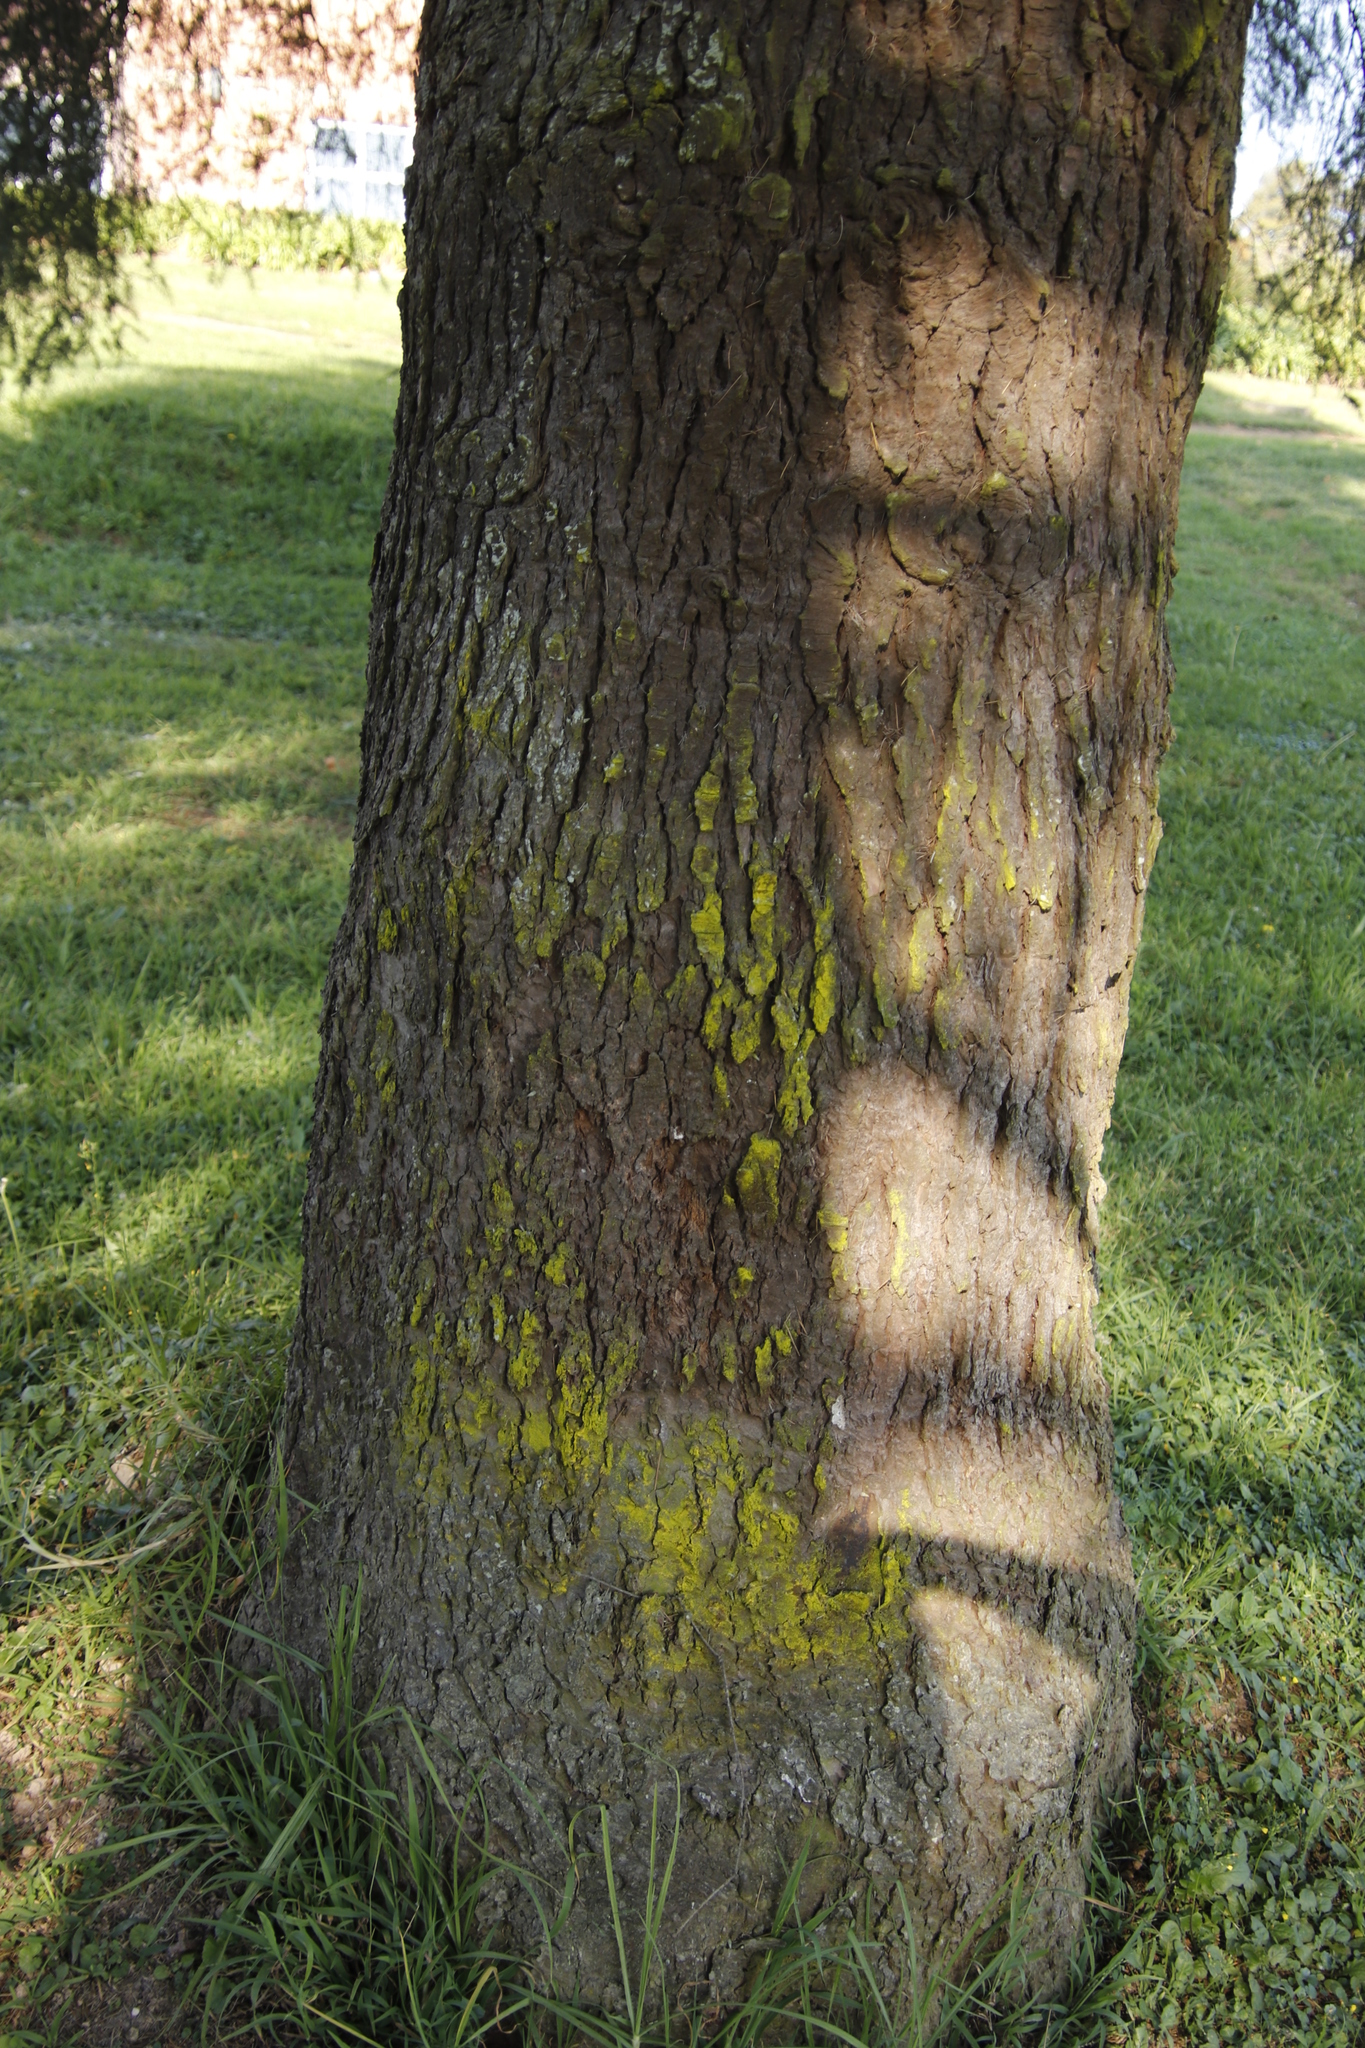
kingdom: Fungi
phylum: Ascomycota
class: Arthoniomycetes
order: Arthoniales
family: Chrysotrichaceae
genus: Chrysothrix
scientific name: Chrysothrix candelaris
